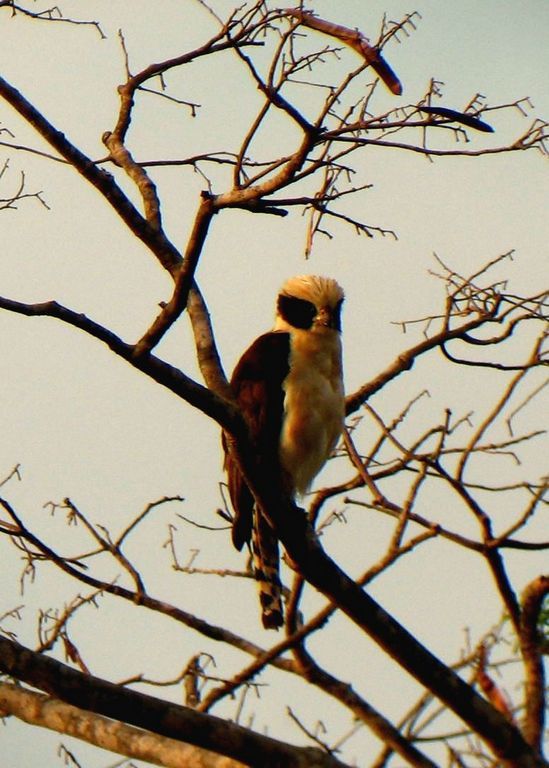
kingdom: Animalia
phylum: Chordata
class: Aves
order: Falconiformes
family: Falconidae
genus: Herpetotheres
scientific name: Herpetotheres cachinnans
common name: Laughing falcon
